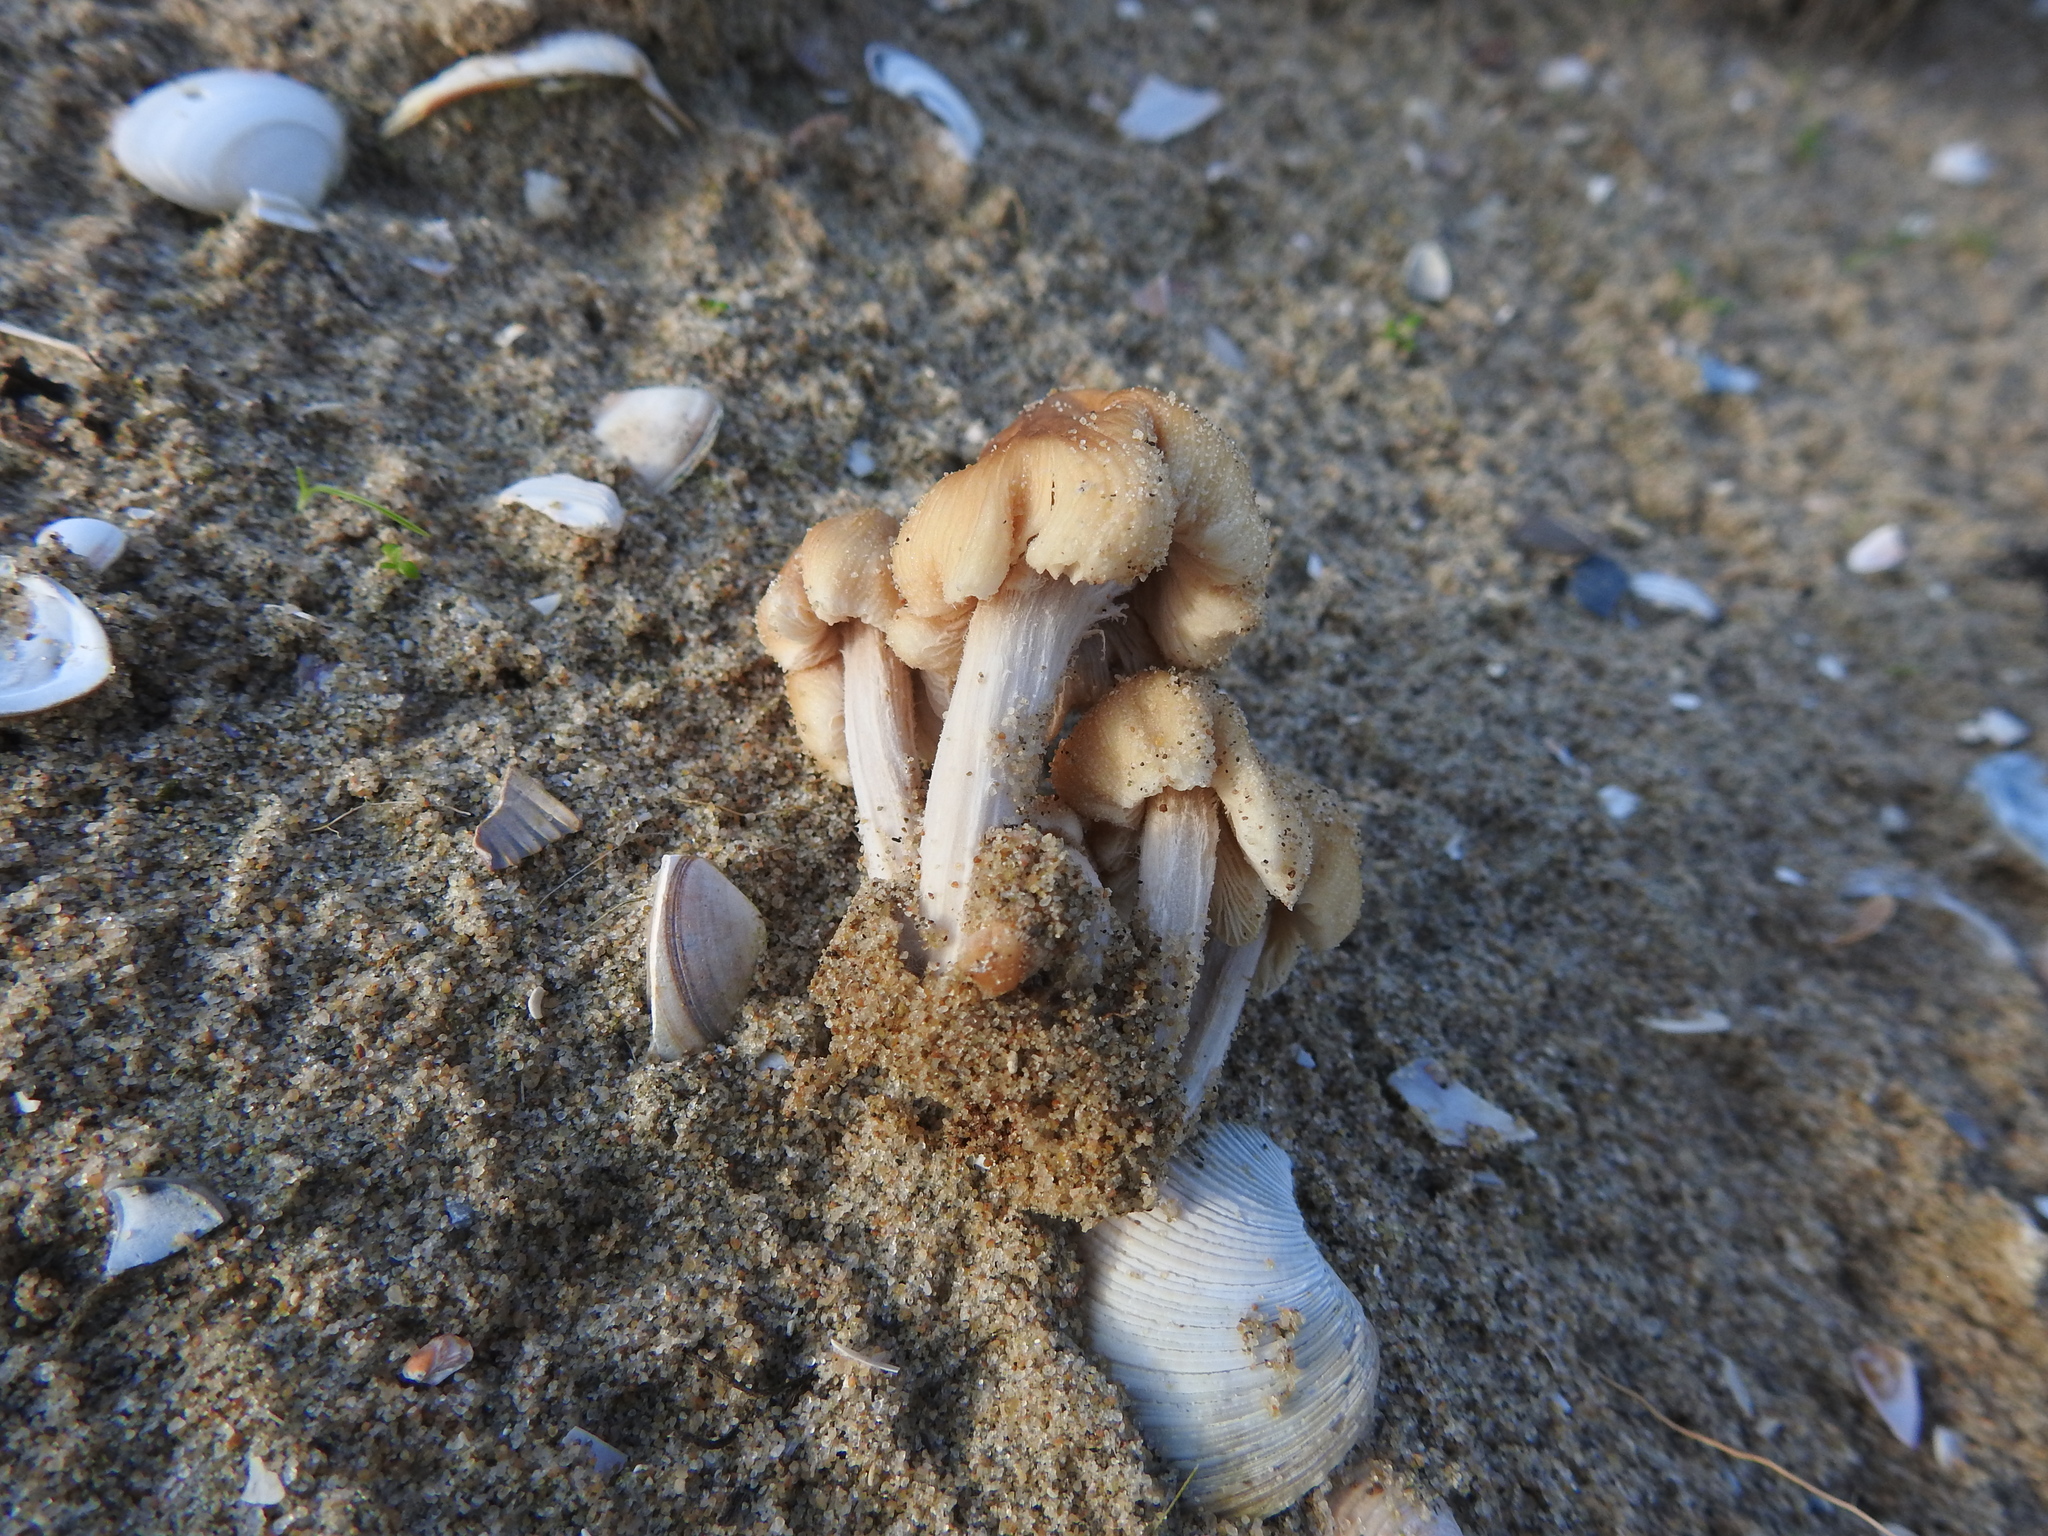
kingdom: Fungi
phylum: Basidiomycota
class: Agaricomycetes
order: Agaricales
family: Psathyrellaceae
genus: Coprinellus
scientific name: Coprinellus micaceus
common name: Glistening ink-cap
